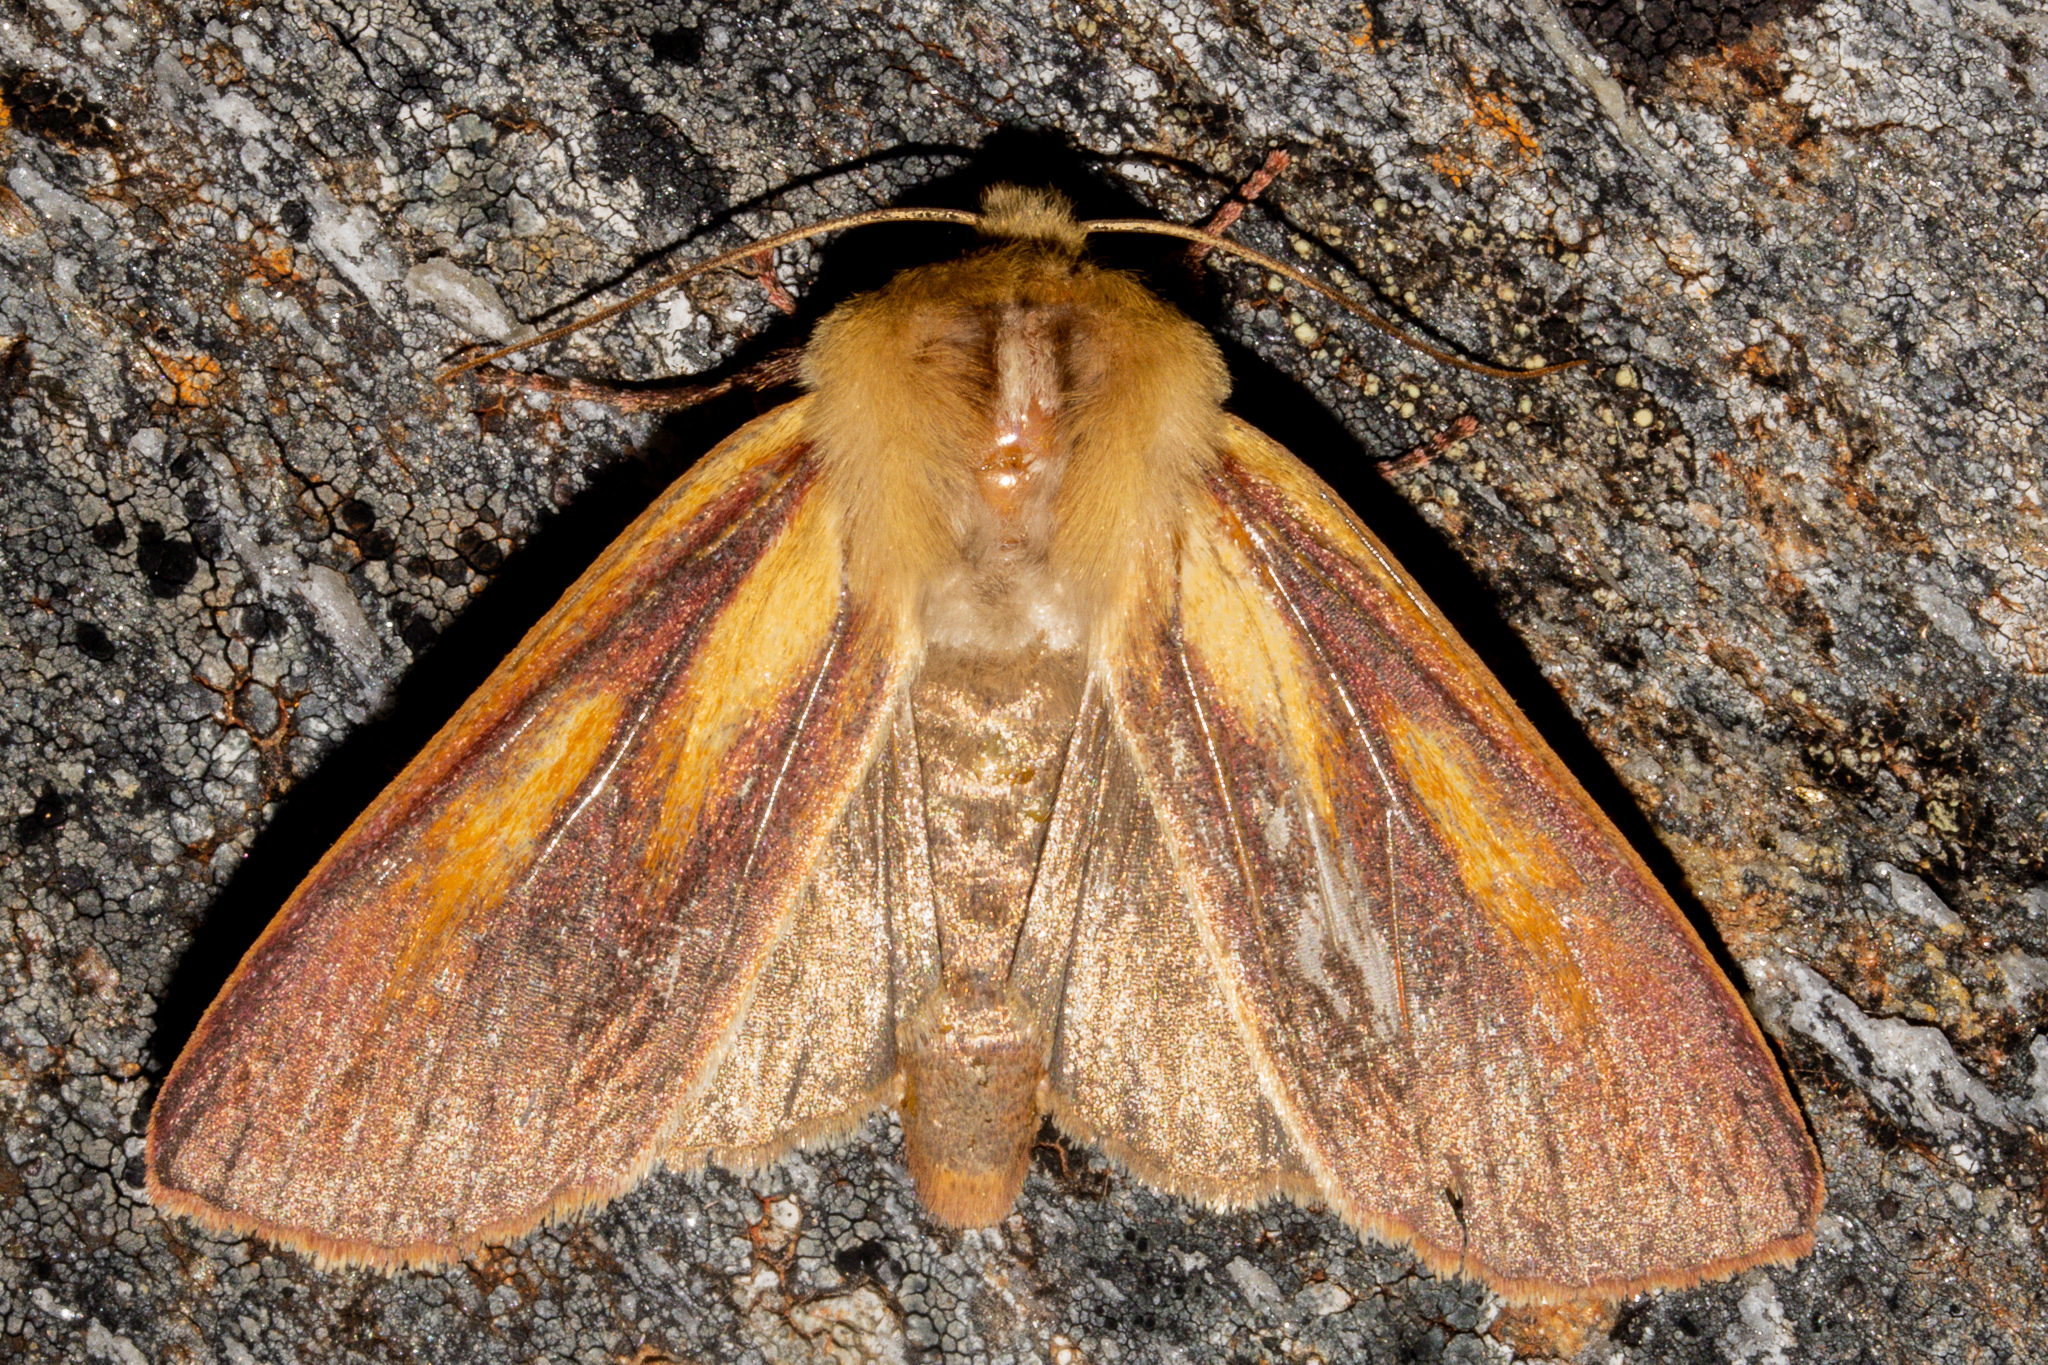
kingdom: Animalia
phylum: Arthropoda
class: Insecta
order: Lepidoptera
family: Noctuidae
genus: Ichneutica
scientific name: Ichneutica
